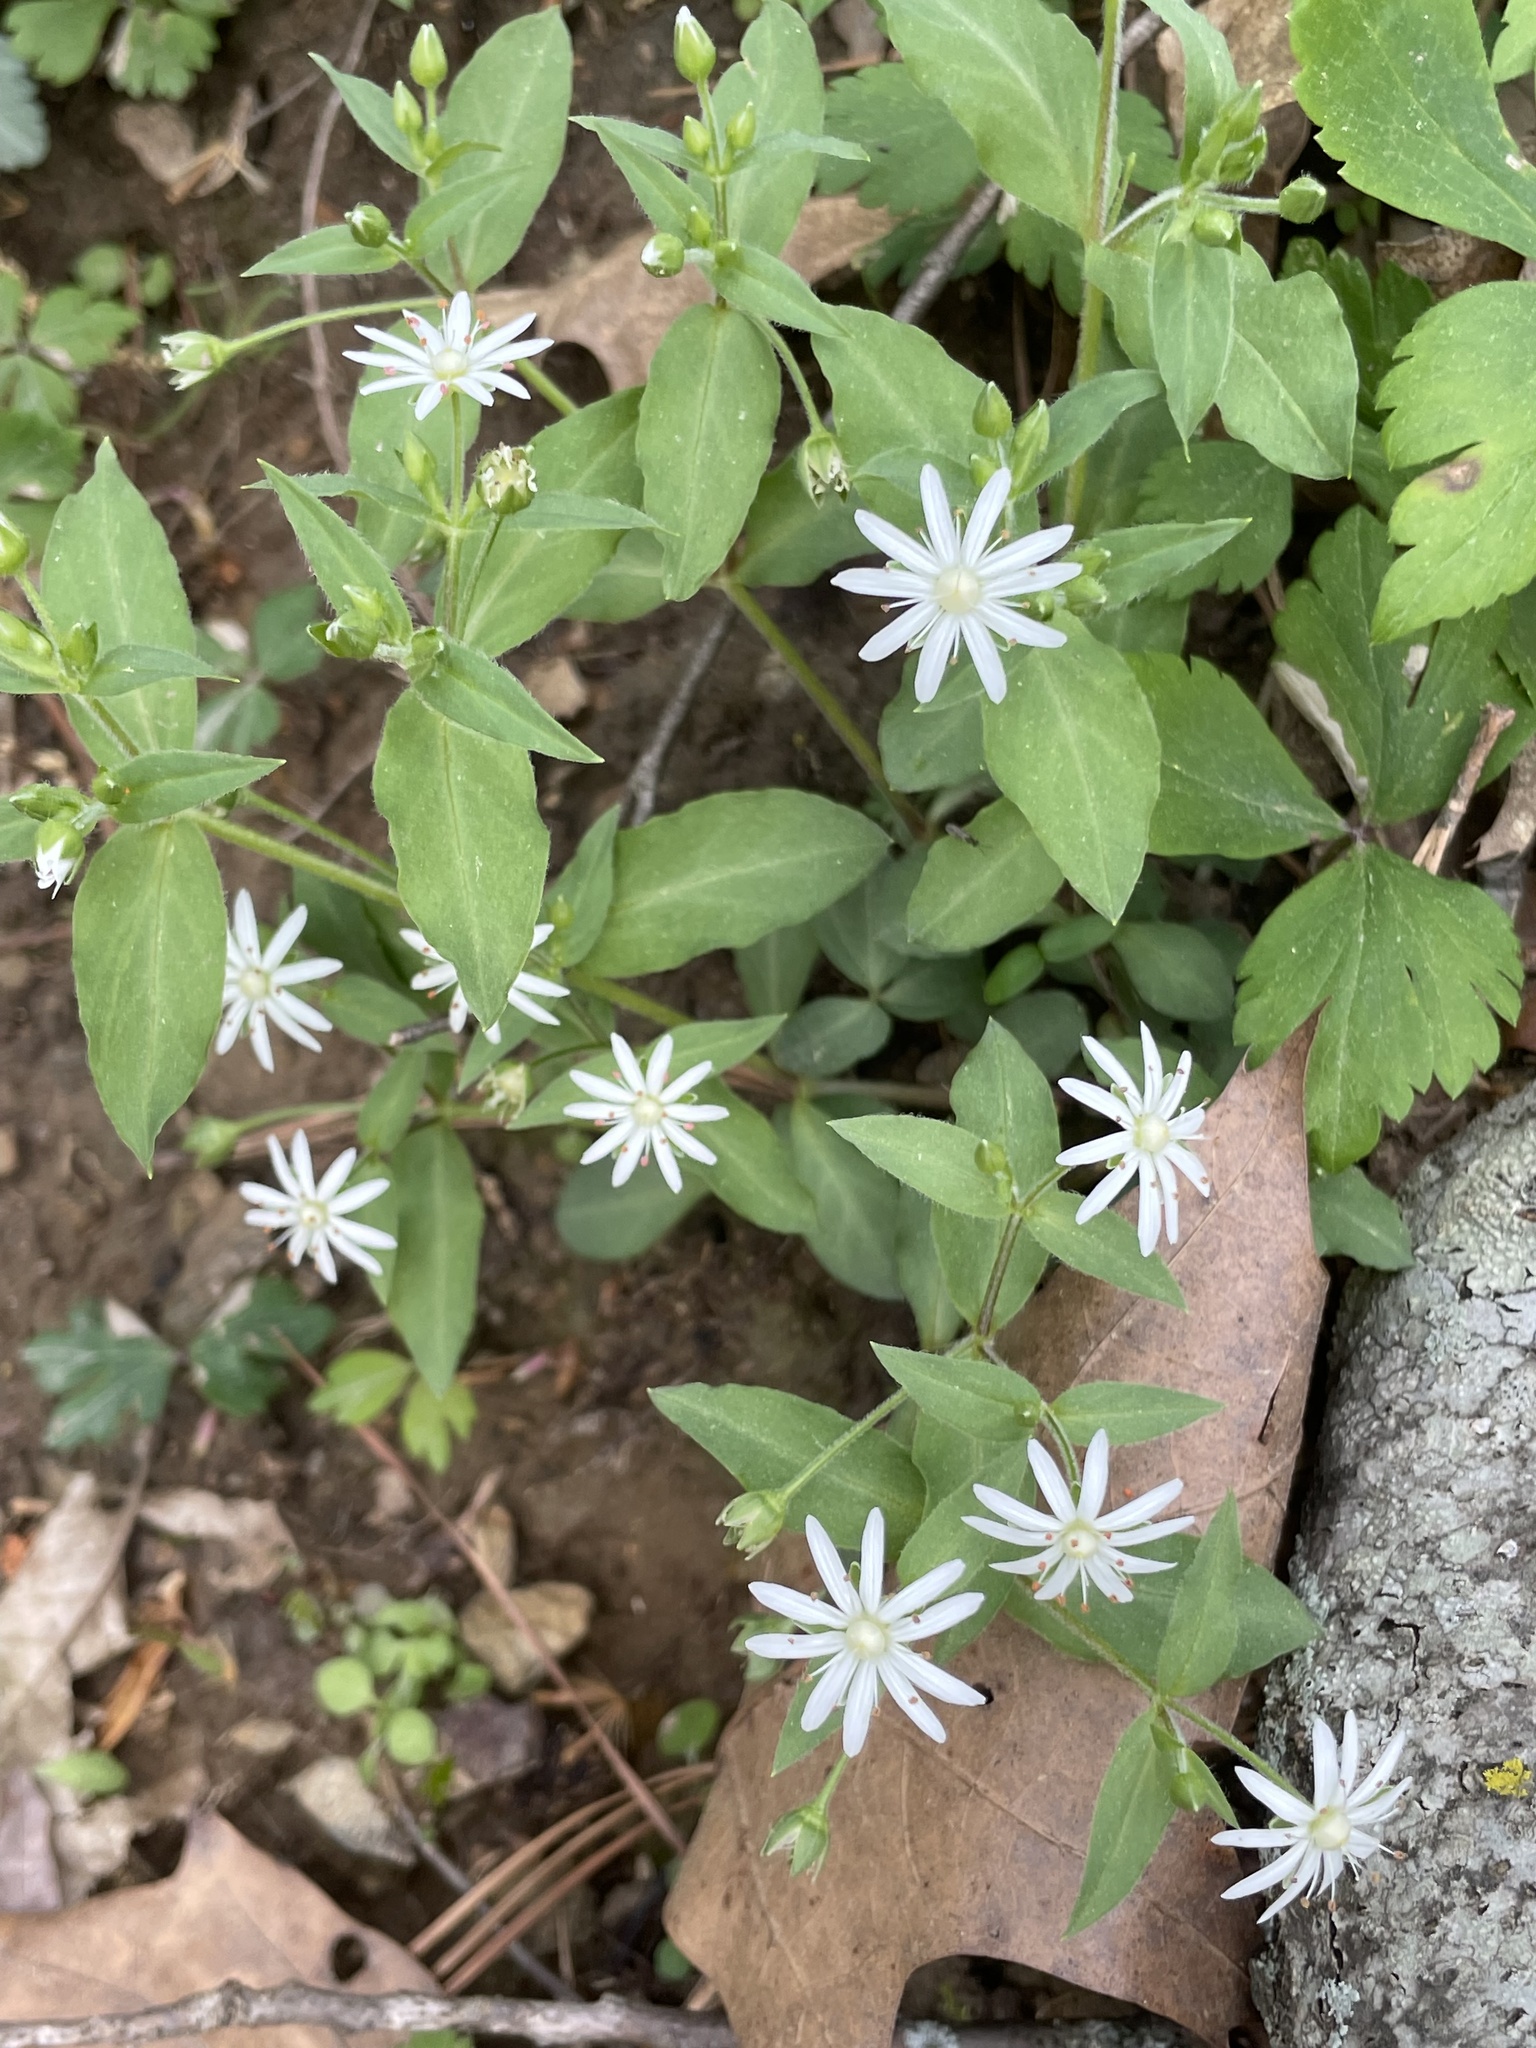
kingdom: Plantae
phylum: Tracheophyta
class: Magnoliopsida
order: Caryophyllales
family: Caryophyllaceae
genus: Stellaria
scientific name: Stellaria pubera
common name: Star chickweed
